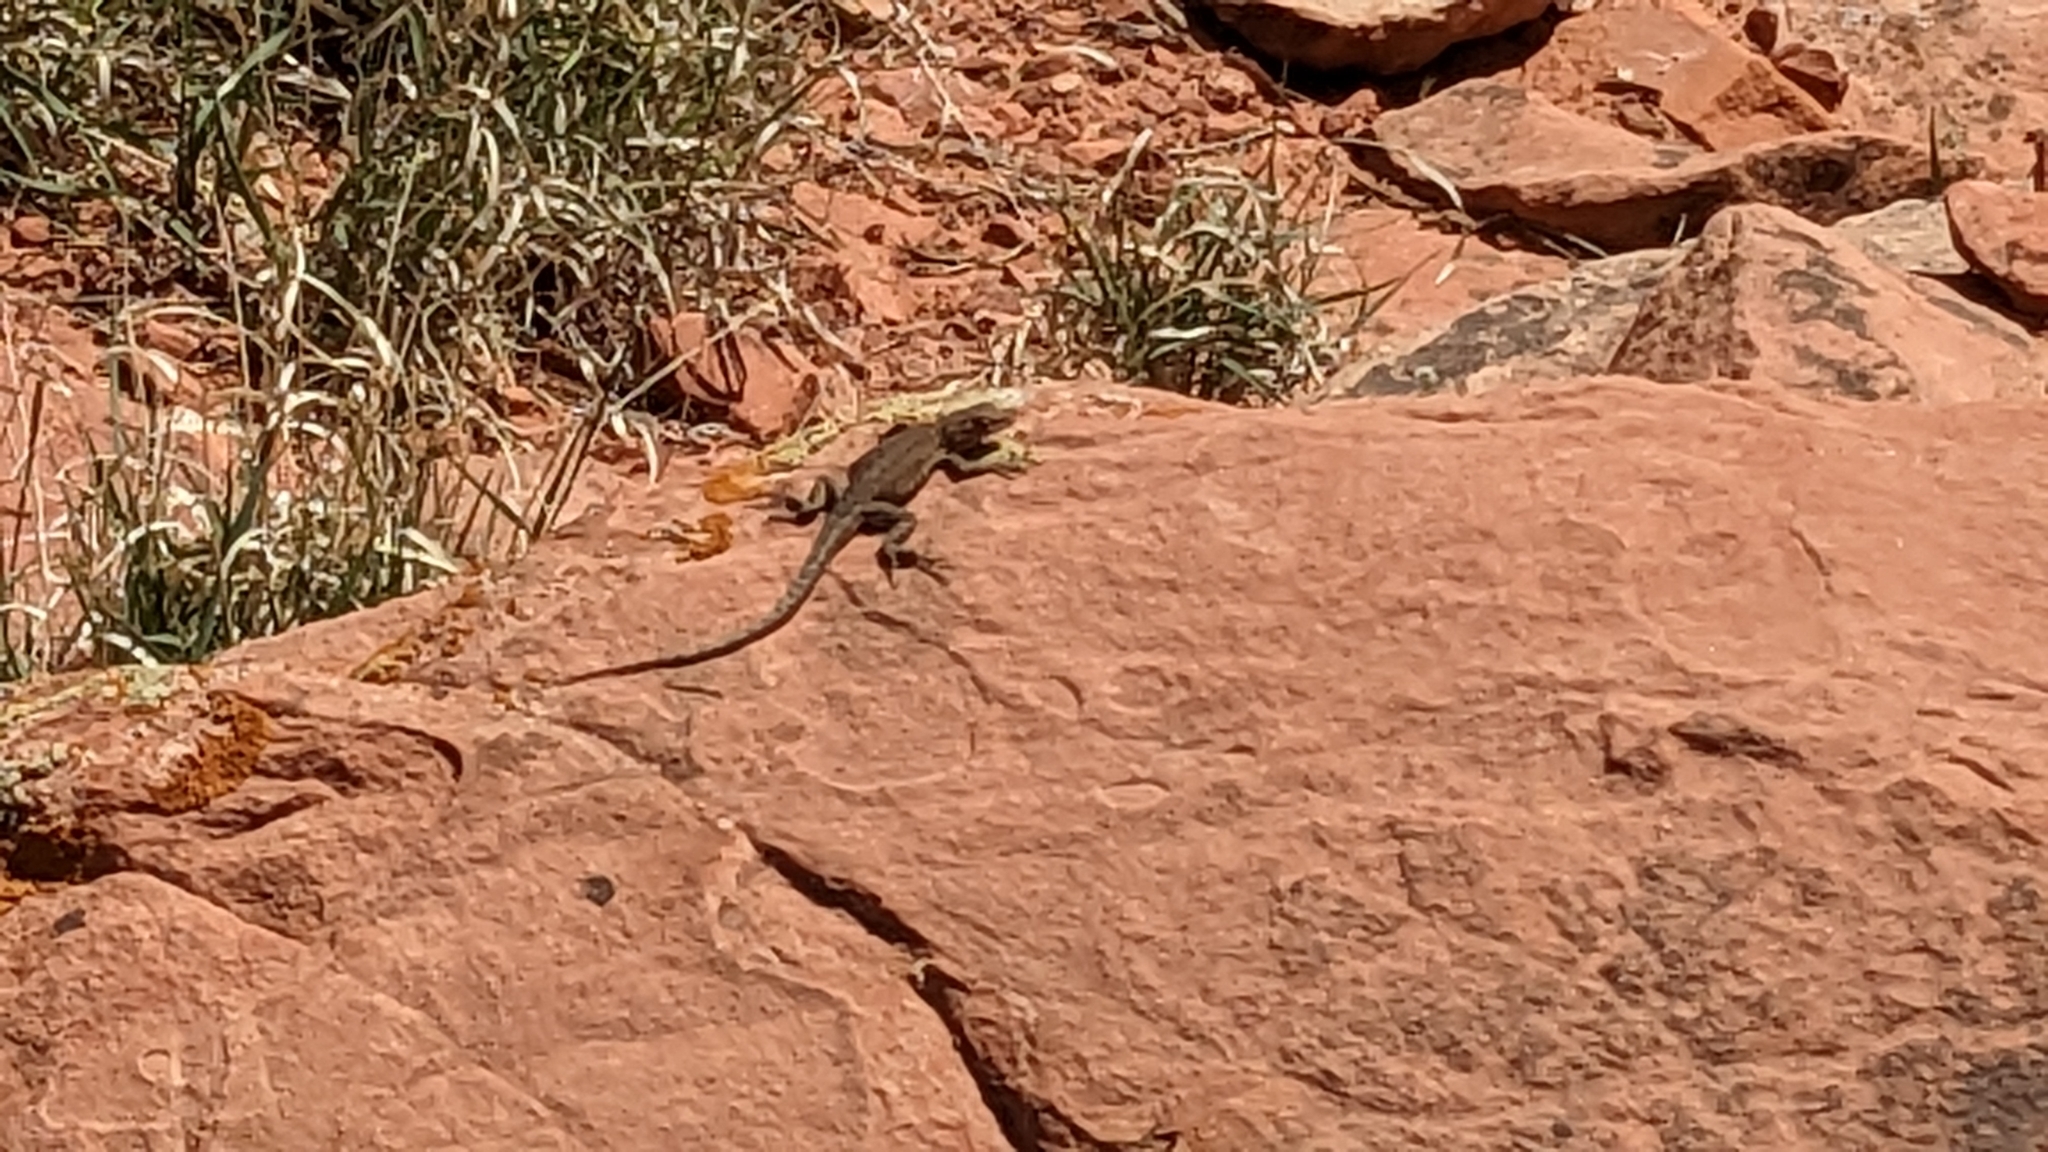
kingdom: Animalia
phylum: Chordata
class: Squamata
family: Phrynosomatidae
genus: Uta
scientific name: Uta stansburiana
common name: Side-blotched lizard
